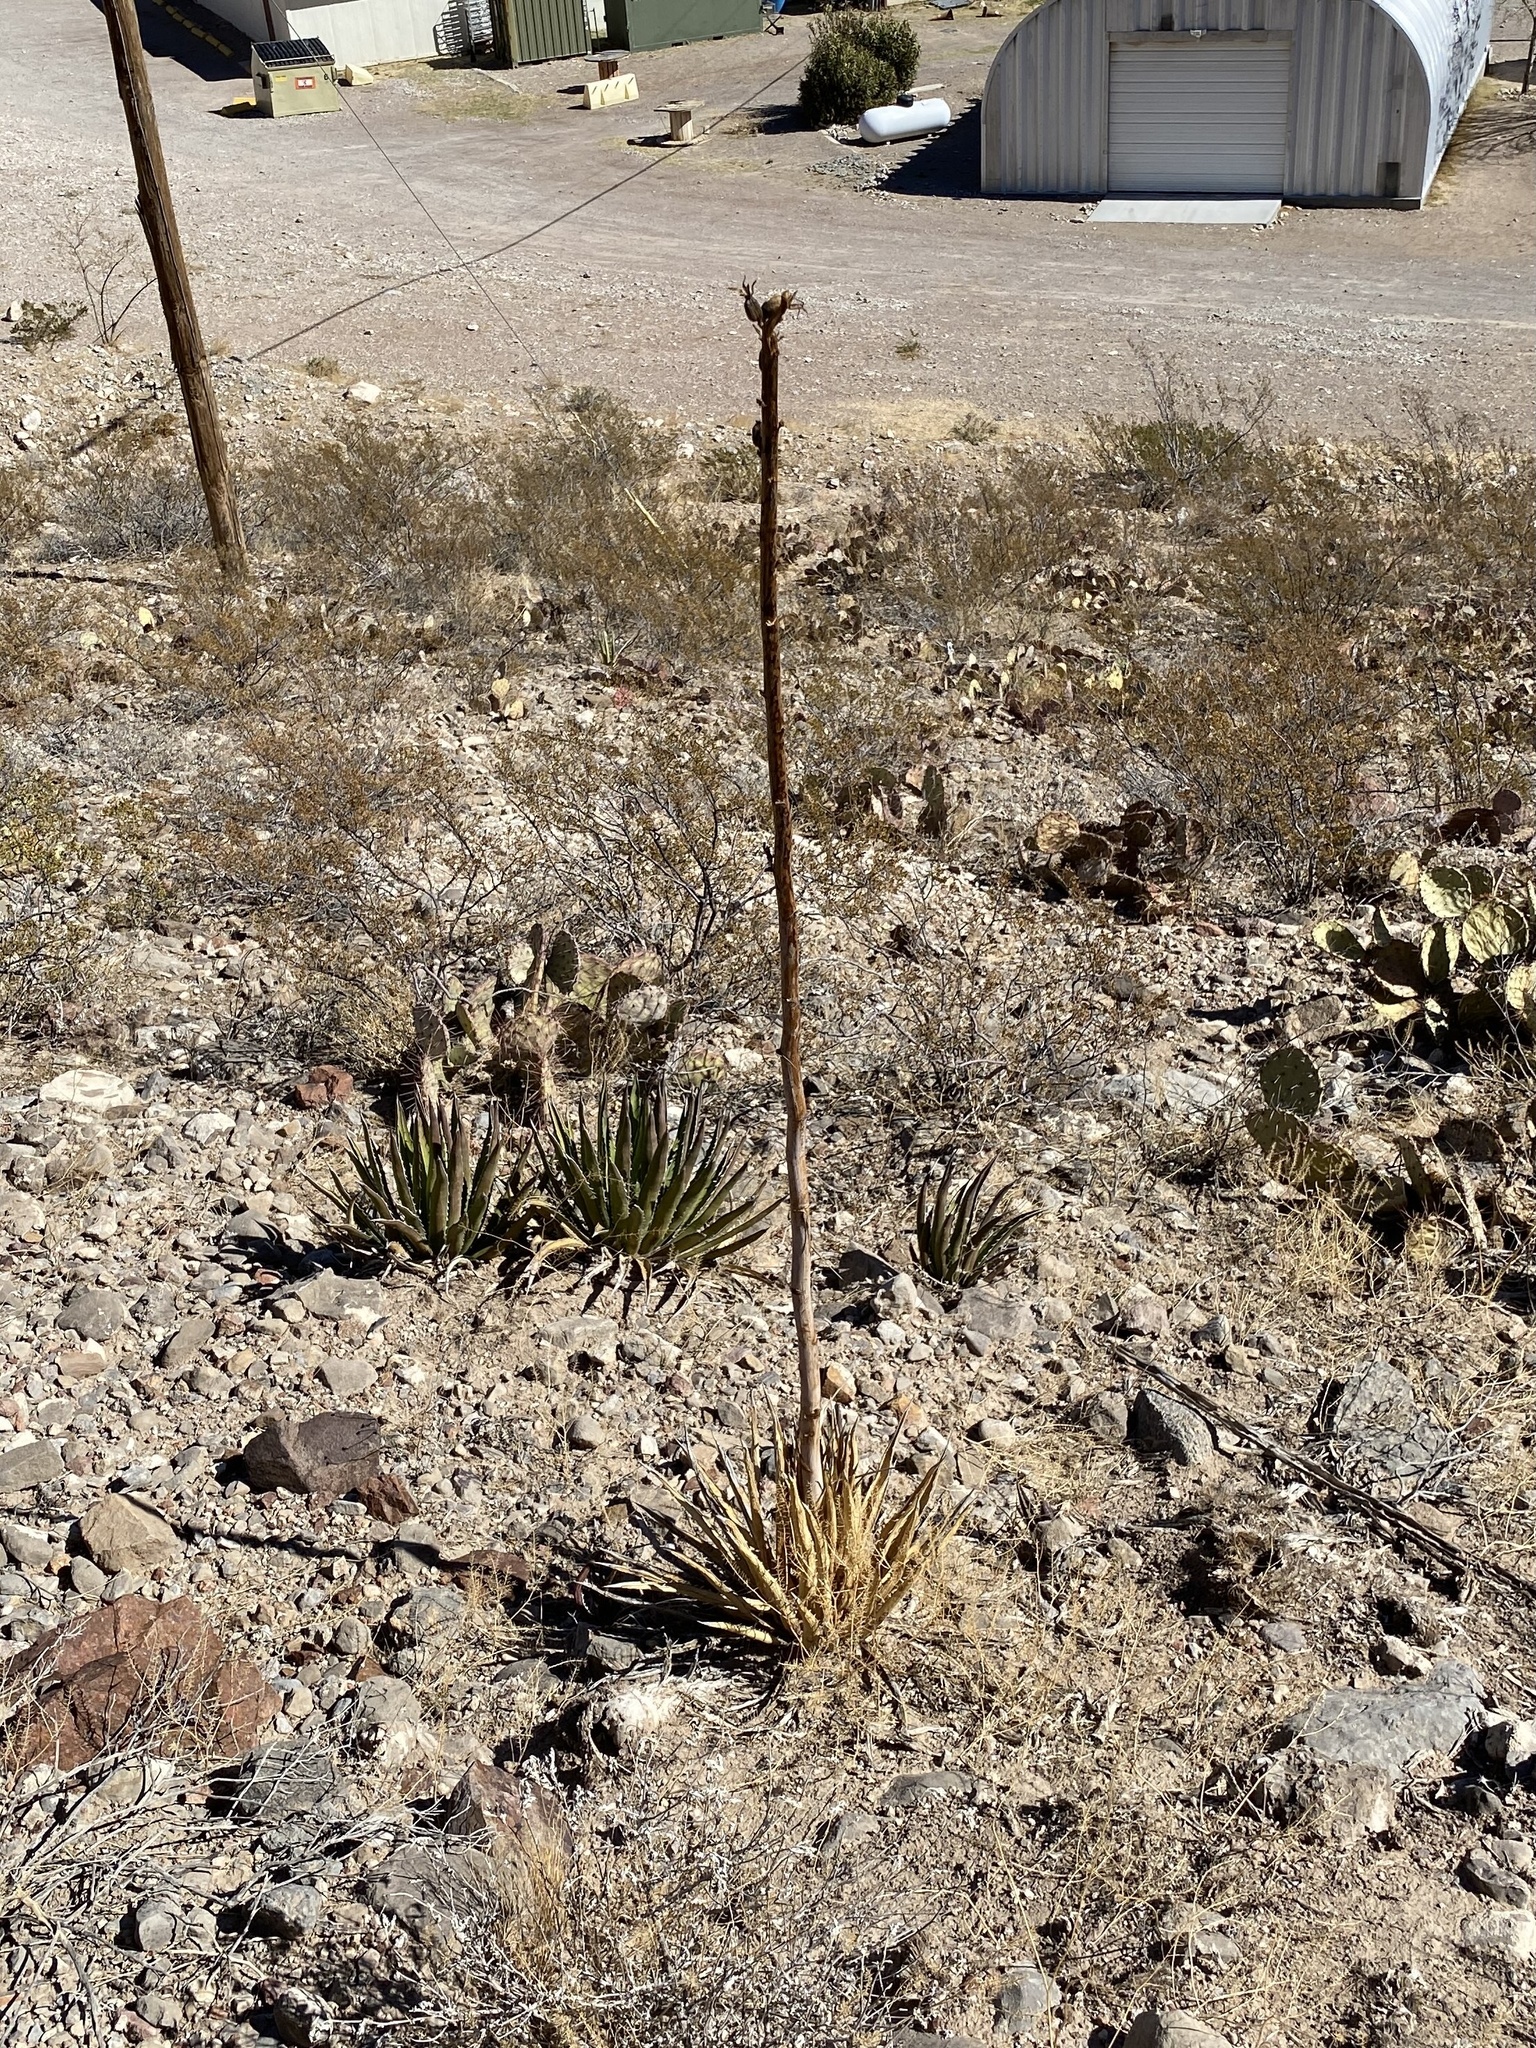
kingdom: Plantae
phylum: Tracheophyta
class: Liliopsida
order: Asparagales
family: Asparagaceae
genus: Agave
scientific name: Agave lechuguilla
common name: Lecheguilla agave
